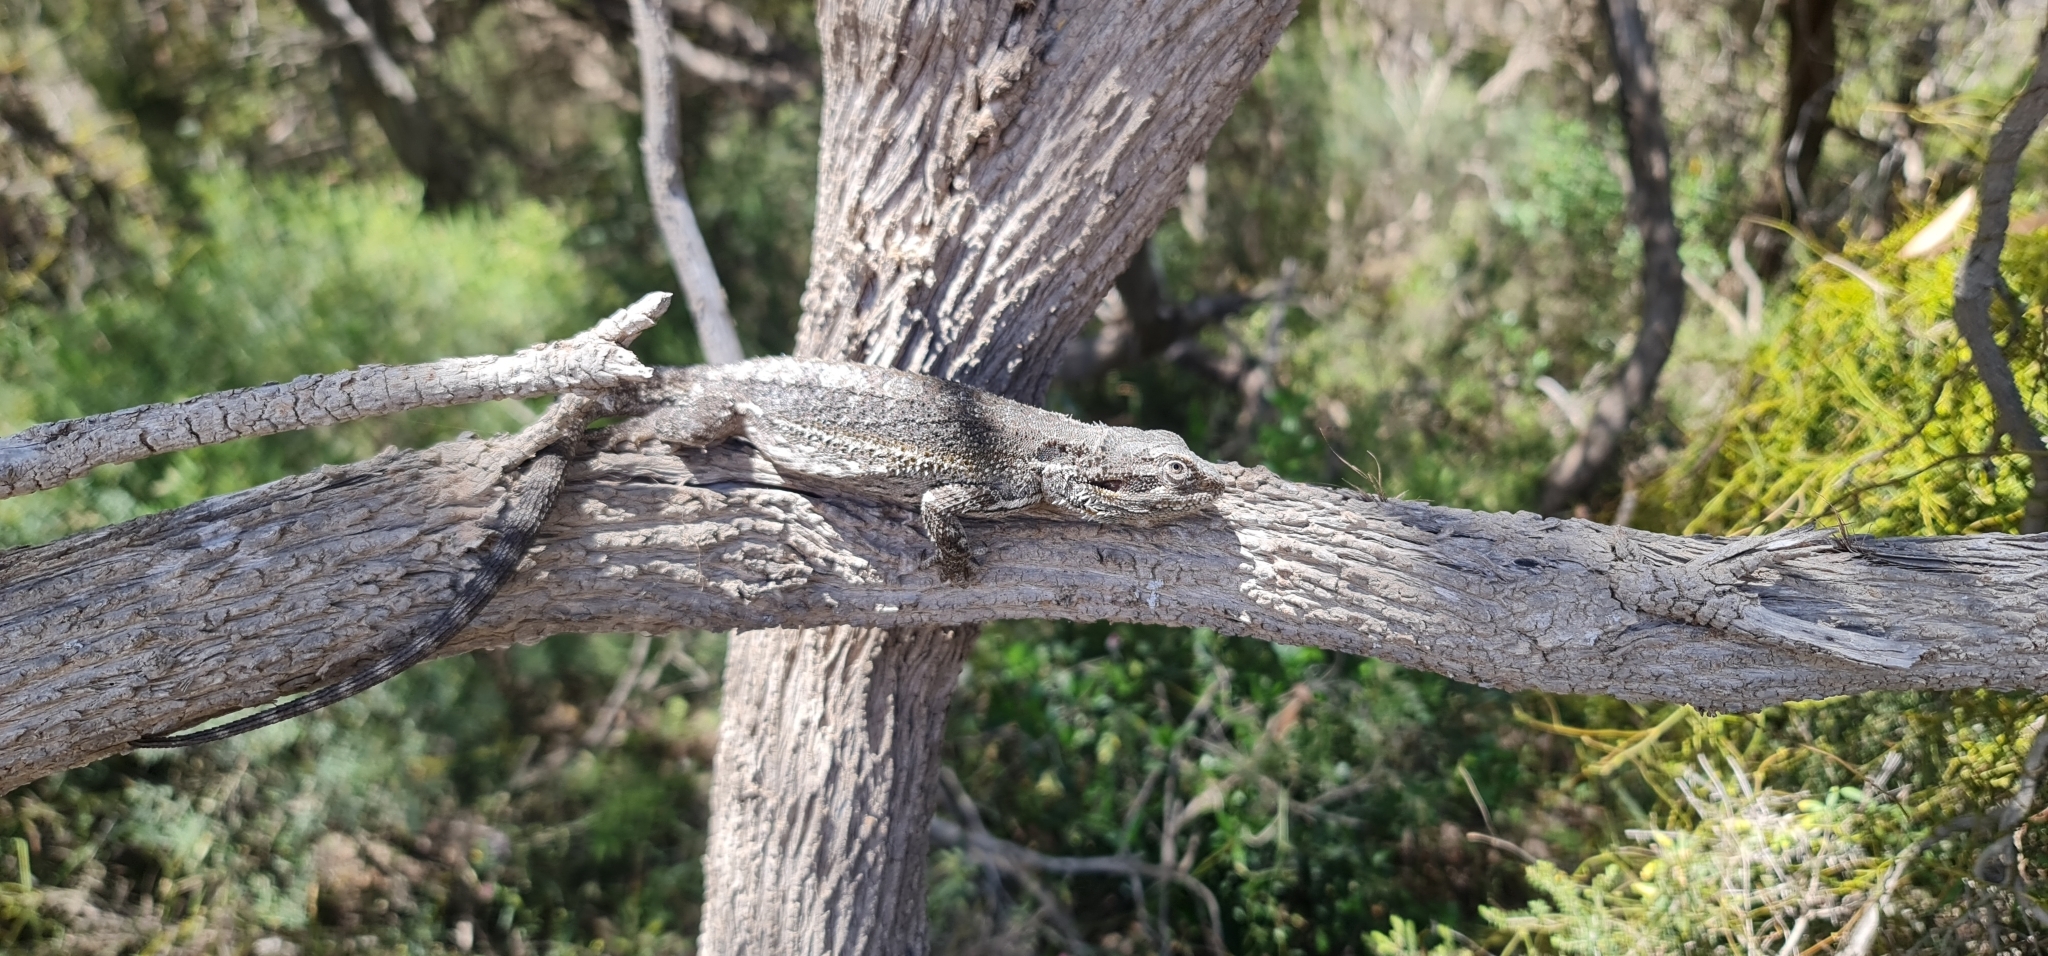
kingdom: Animalia
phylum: Chordata
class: Squamata
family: Agamidae
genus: Pogona
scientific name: Pogona barbata
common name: Bearded dragon
